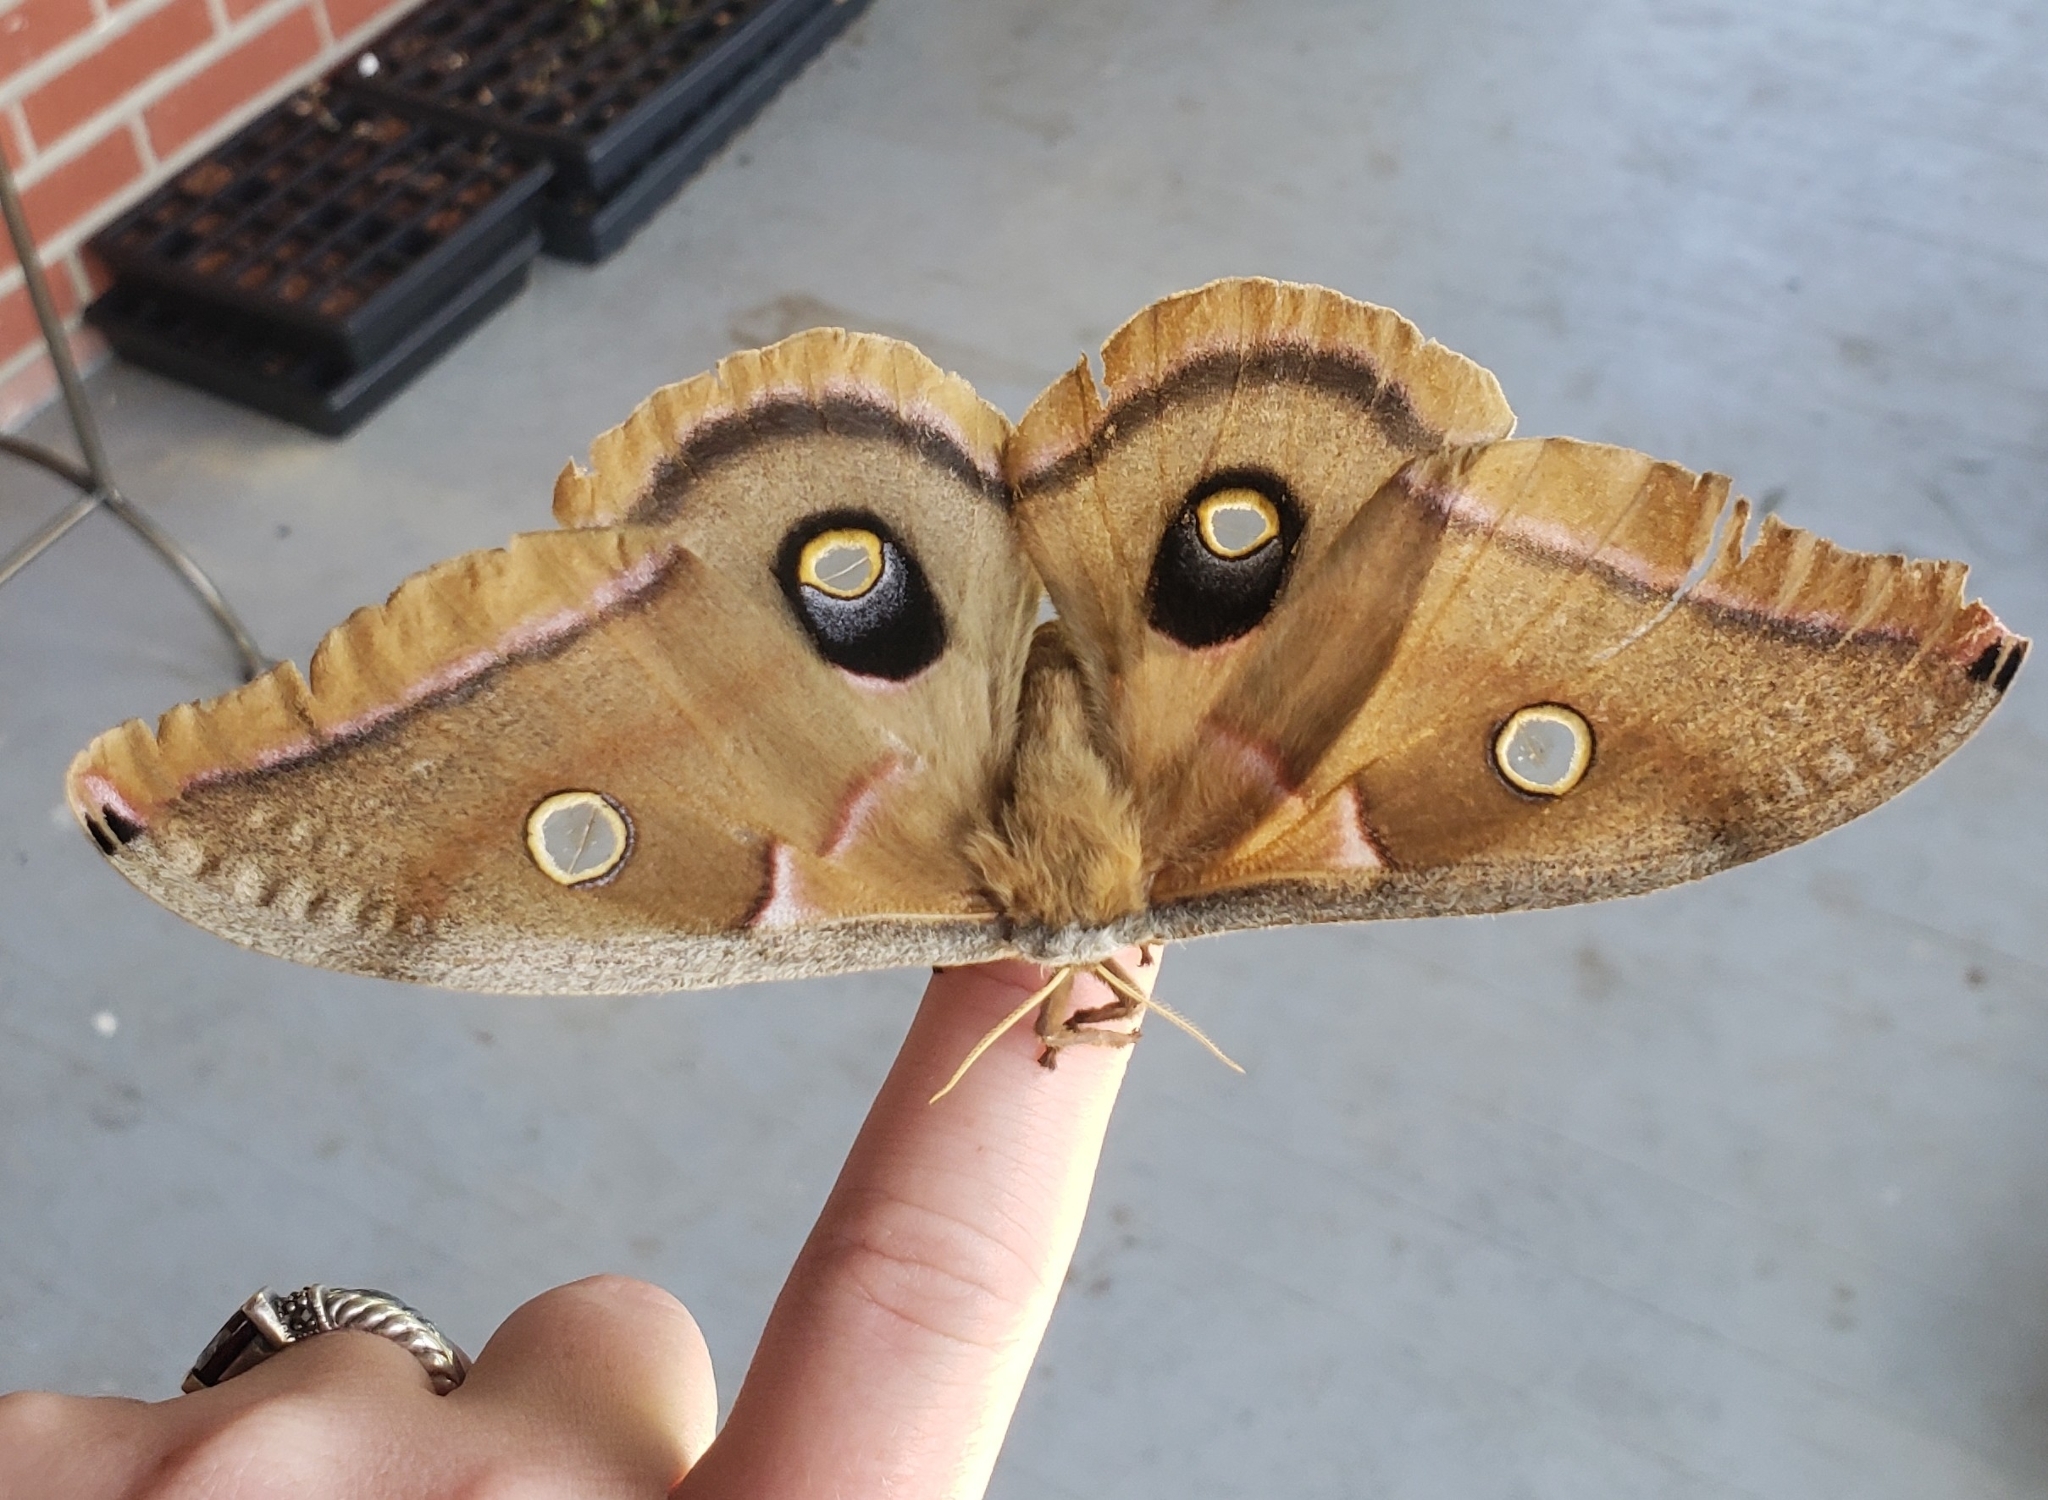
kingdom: Animalia
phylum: Arthropoda
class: Insecta
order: Lepidoptera
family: Saturniidae
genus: Antheraea
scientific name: Antheraea polyphemus
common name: Polyphemus moth
